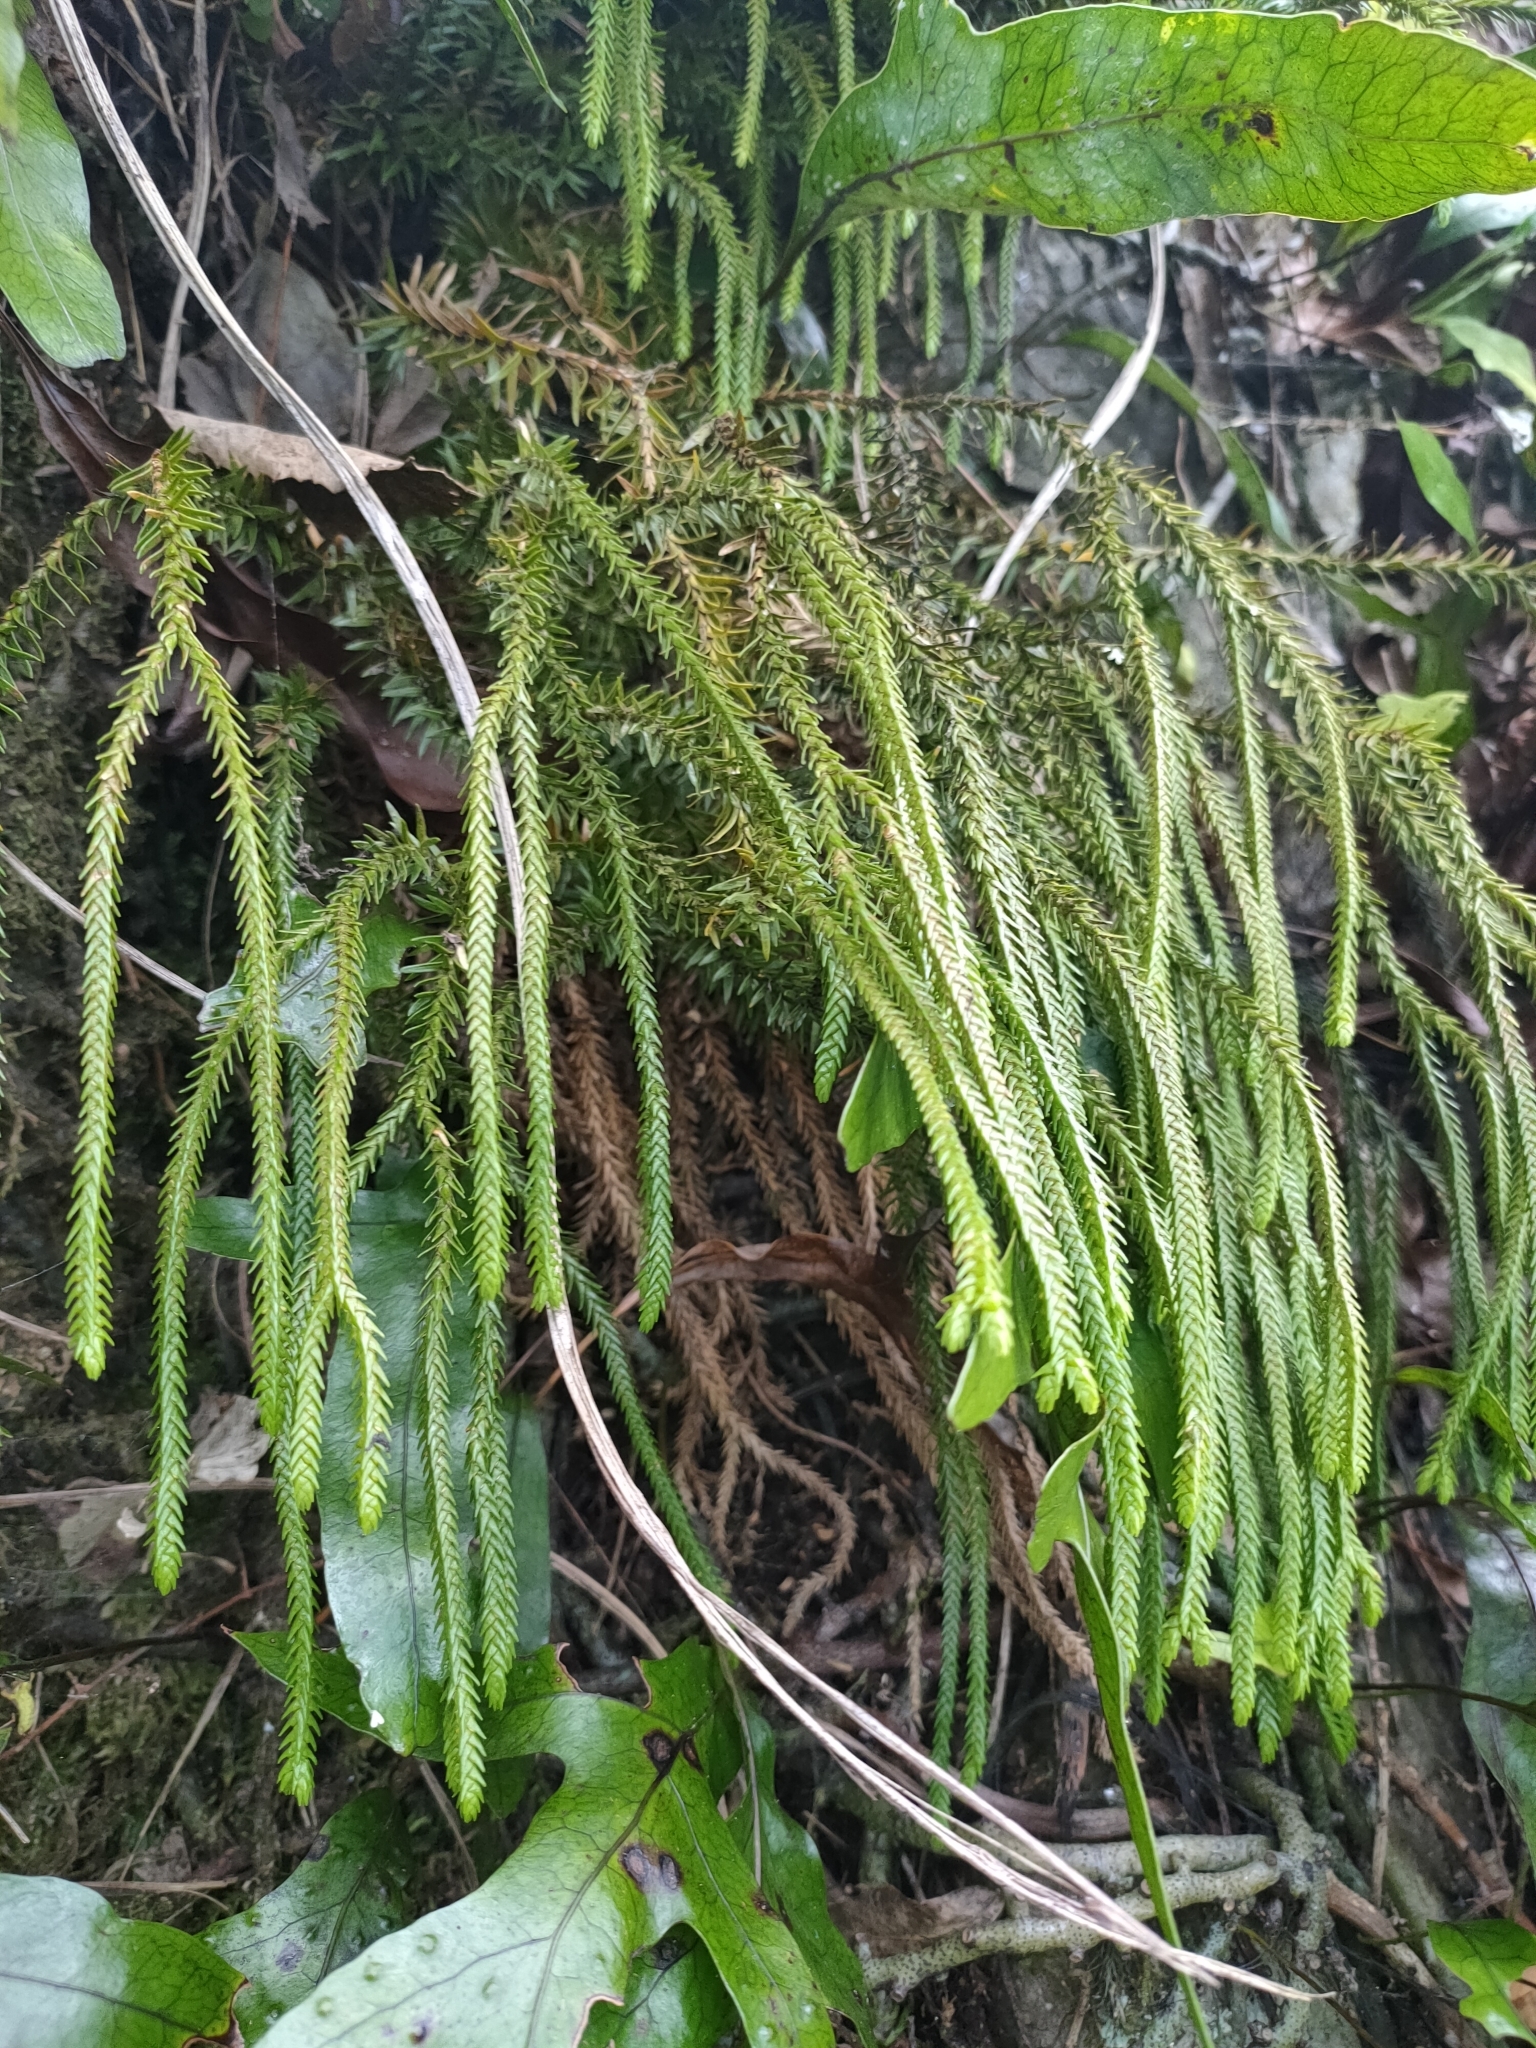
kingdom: Plantae
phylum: Tracheophyta
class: Lycopodiopsida
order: Lycopodiales
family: Lycopodiaceae
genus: Phlegmariurus
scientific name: Phlegmariurus varius
